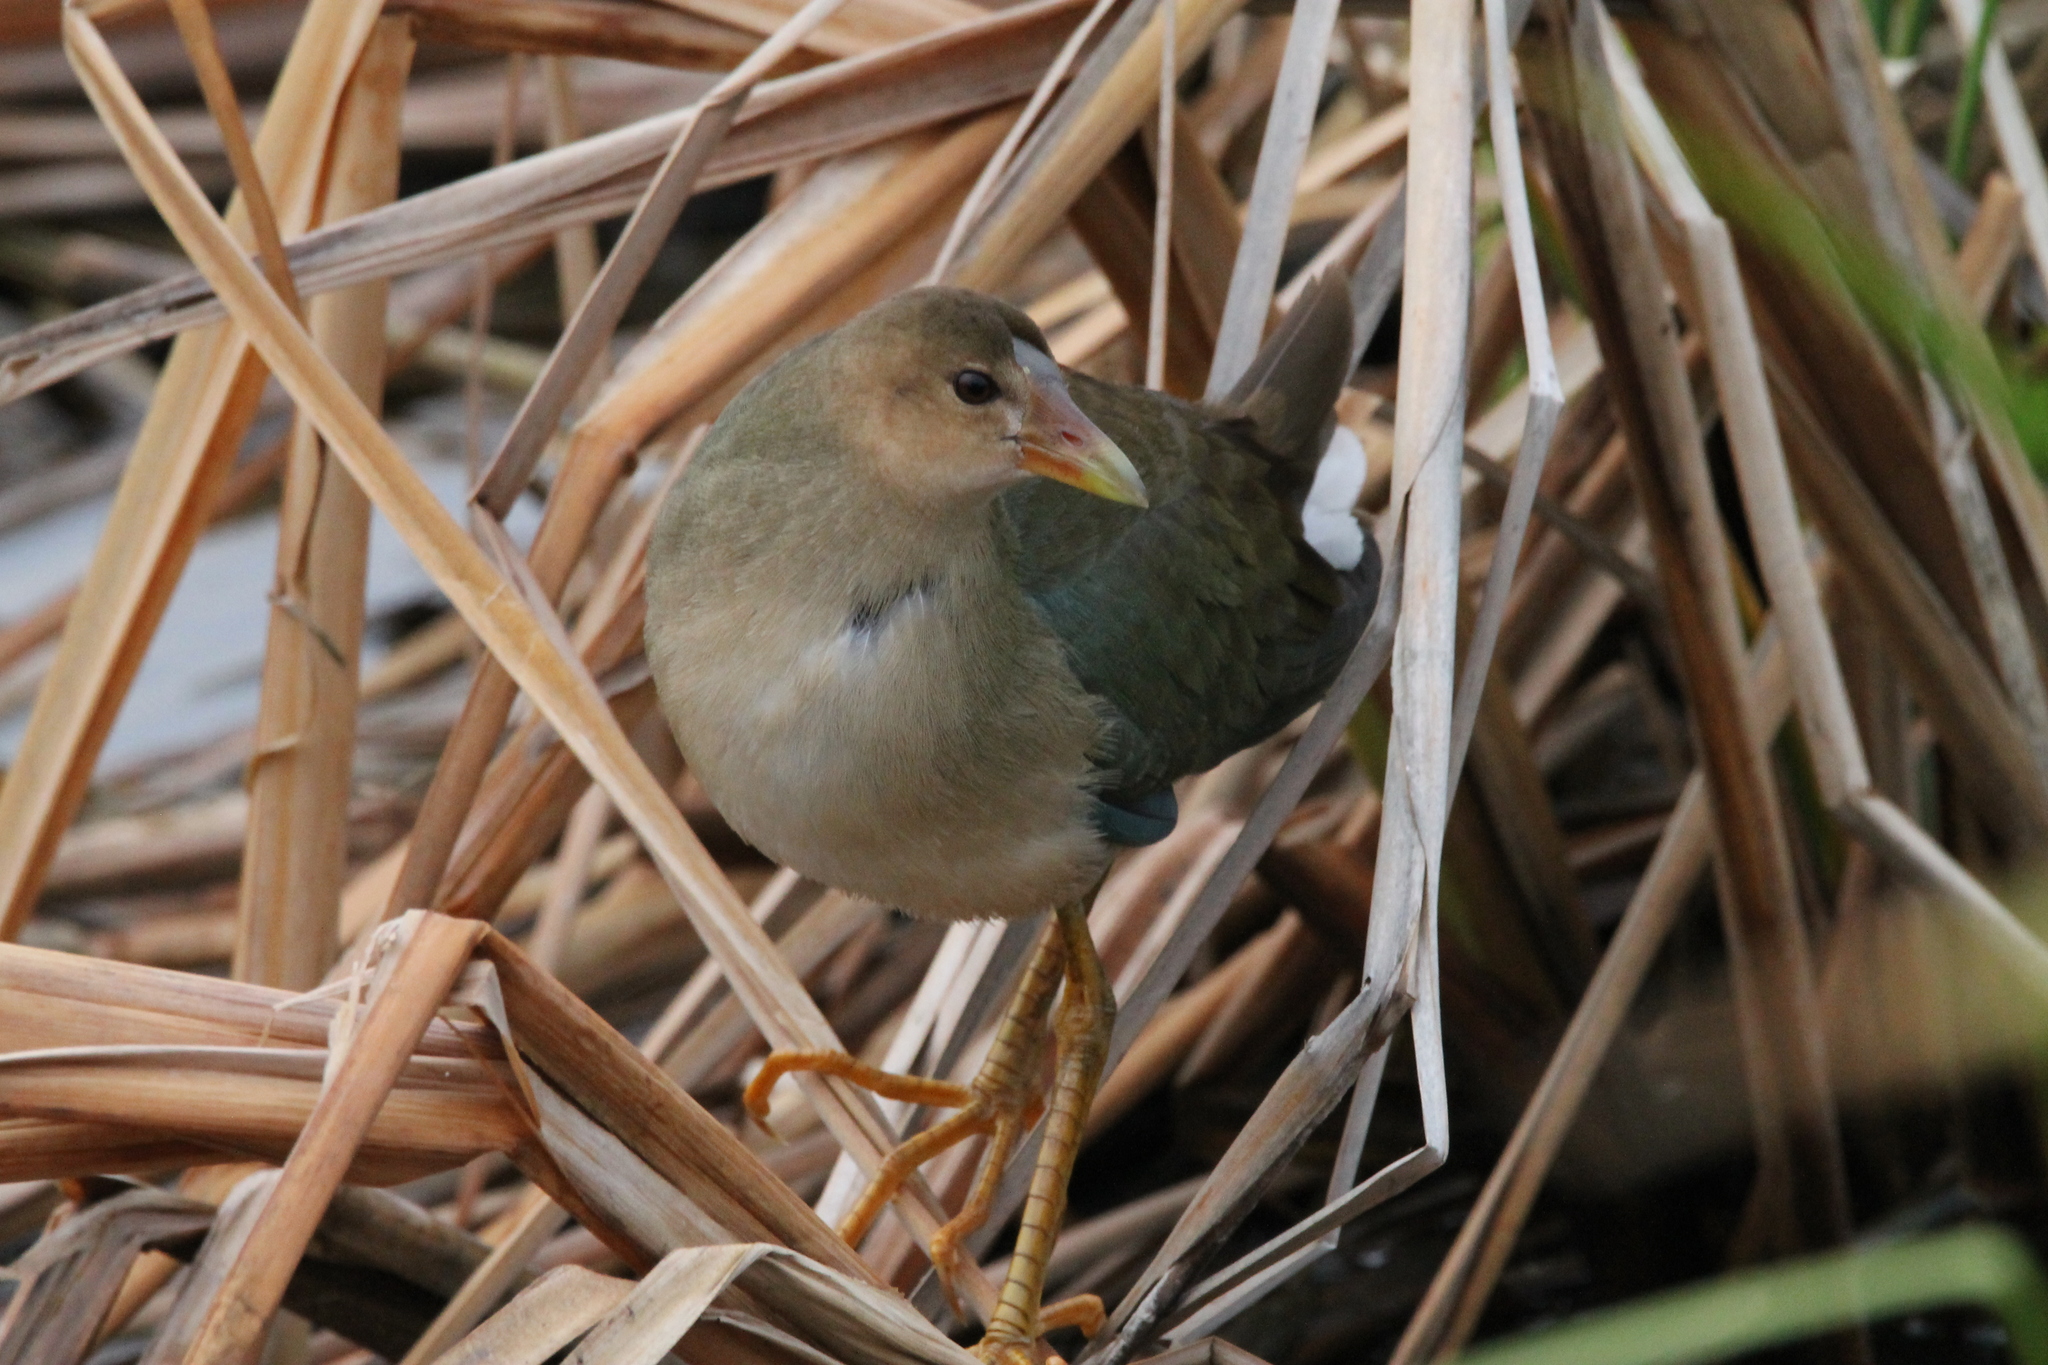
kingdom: Animalia
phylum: Chordata
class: Aves
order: Gruiformes
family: Rallidae
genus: Porphyrio
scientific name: Porphyrio martinica
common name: Purple gallinule
